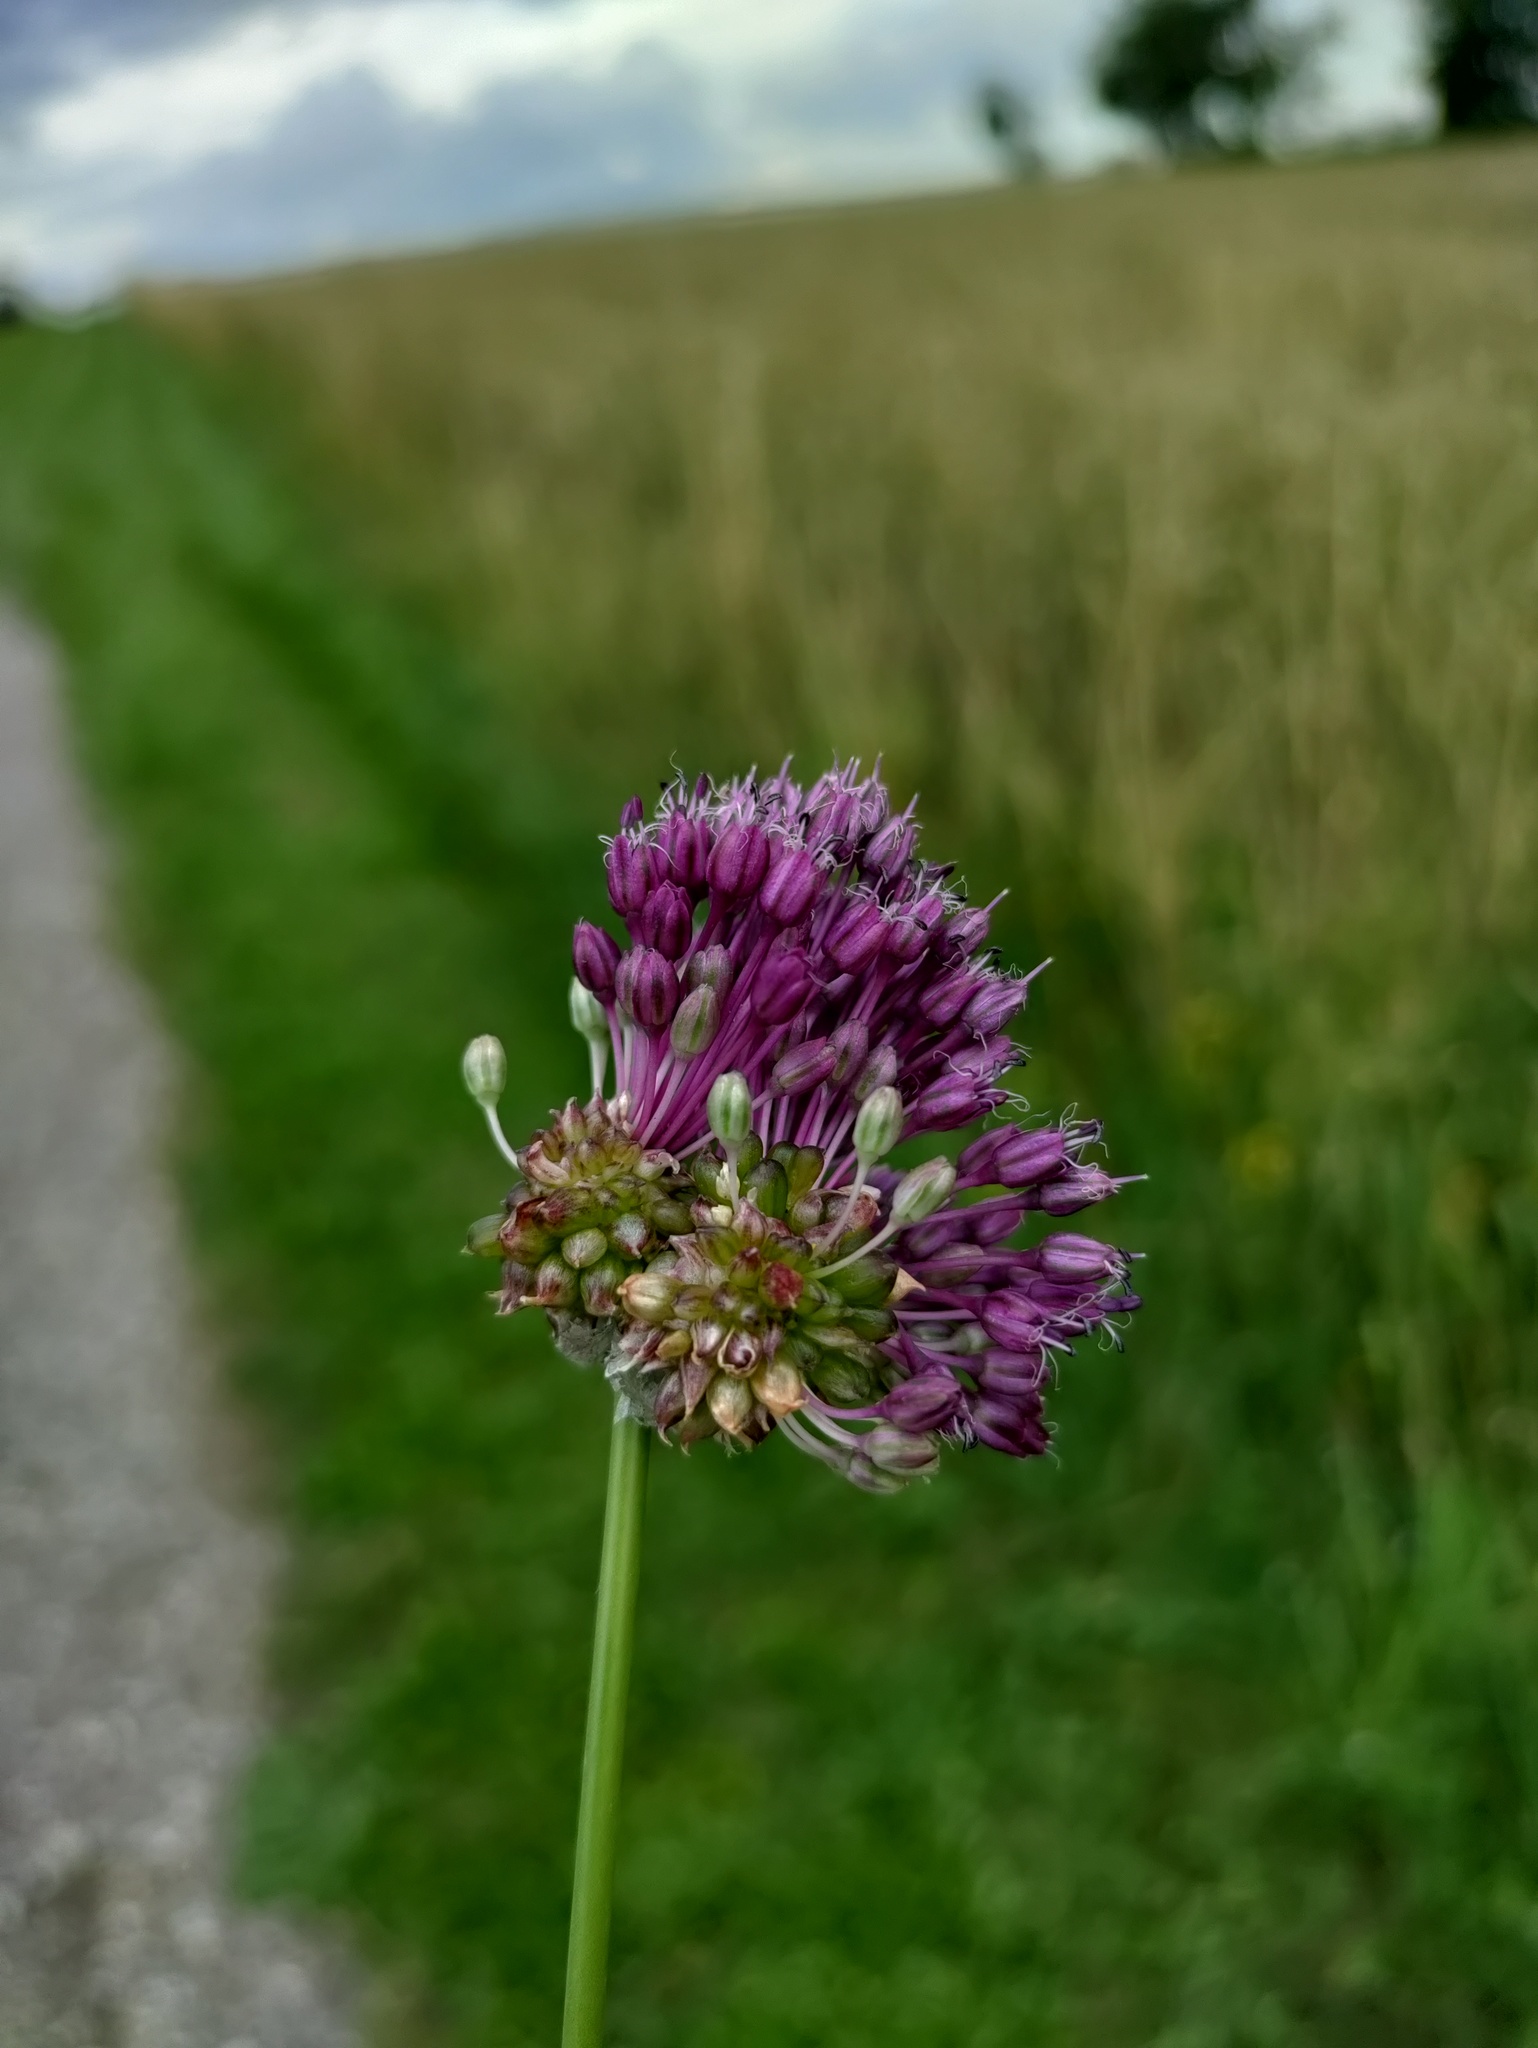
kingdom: Plantae
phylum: Tracheophyta
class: Liliopsida
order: Asparagales
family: Amaryllidaceae
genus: Allium
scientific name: Allium vineale
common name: Crow garlic
